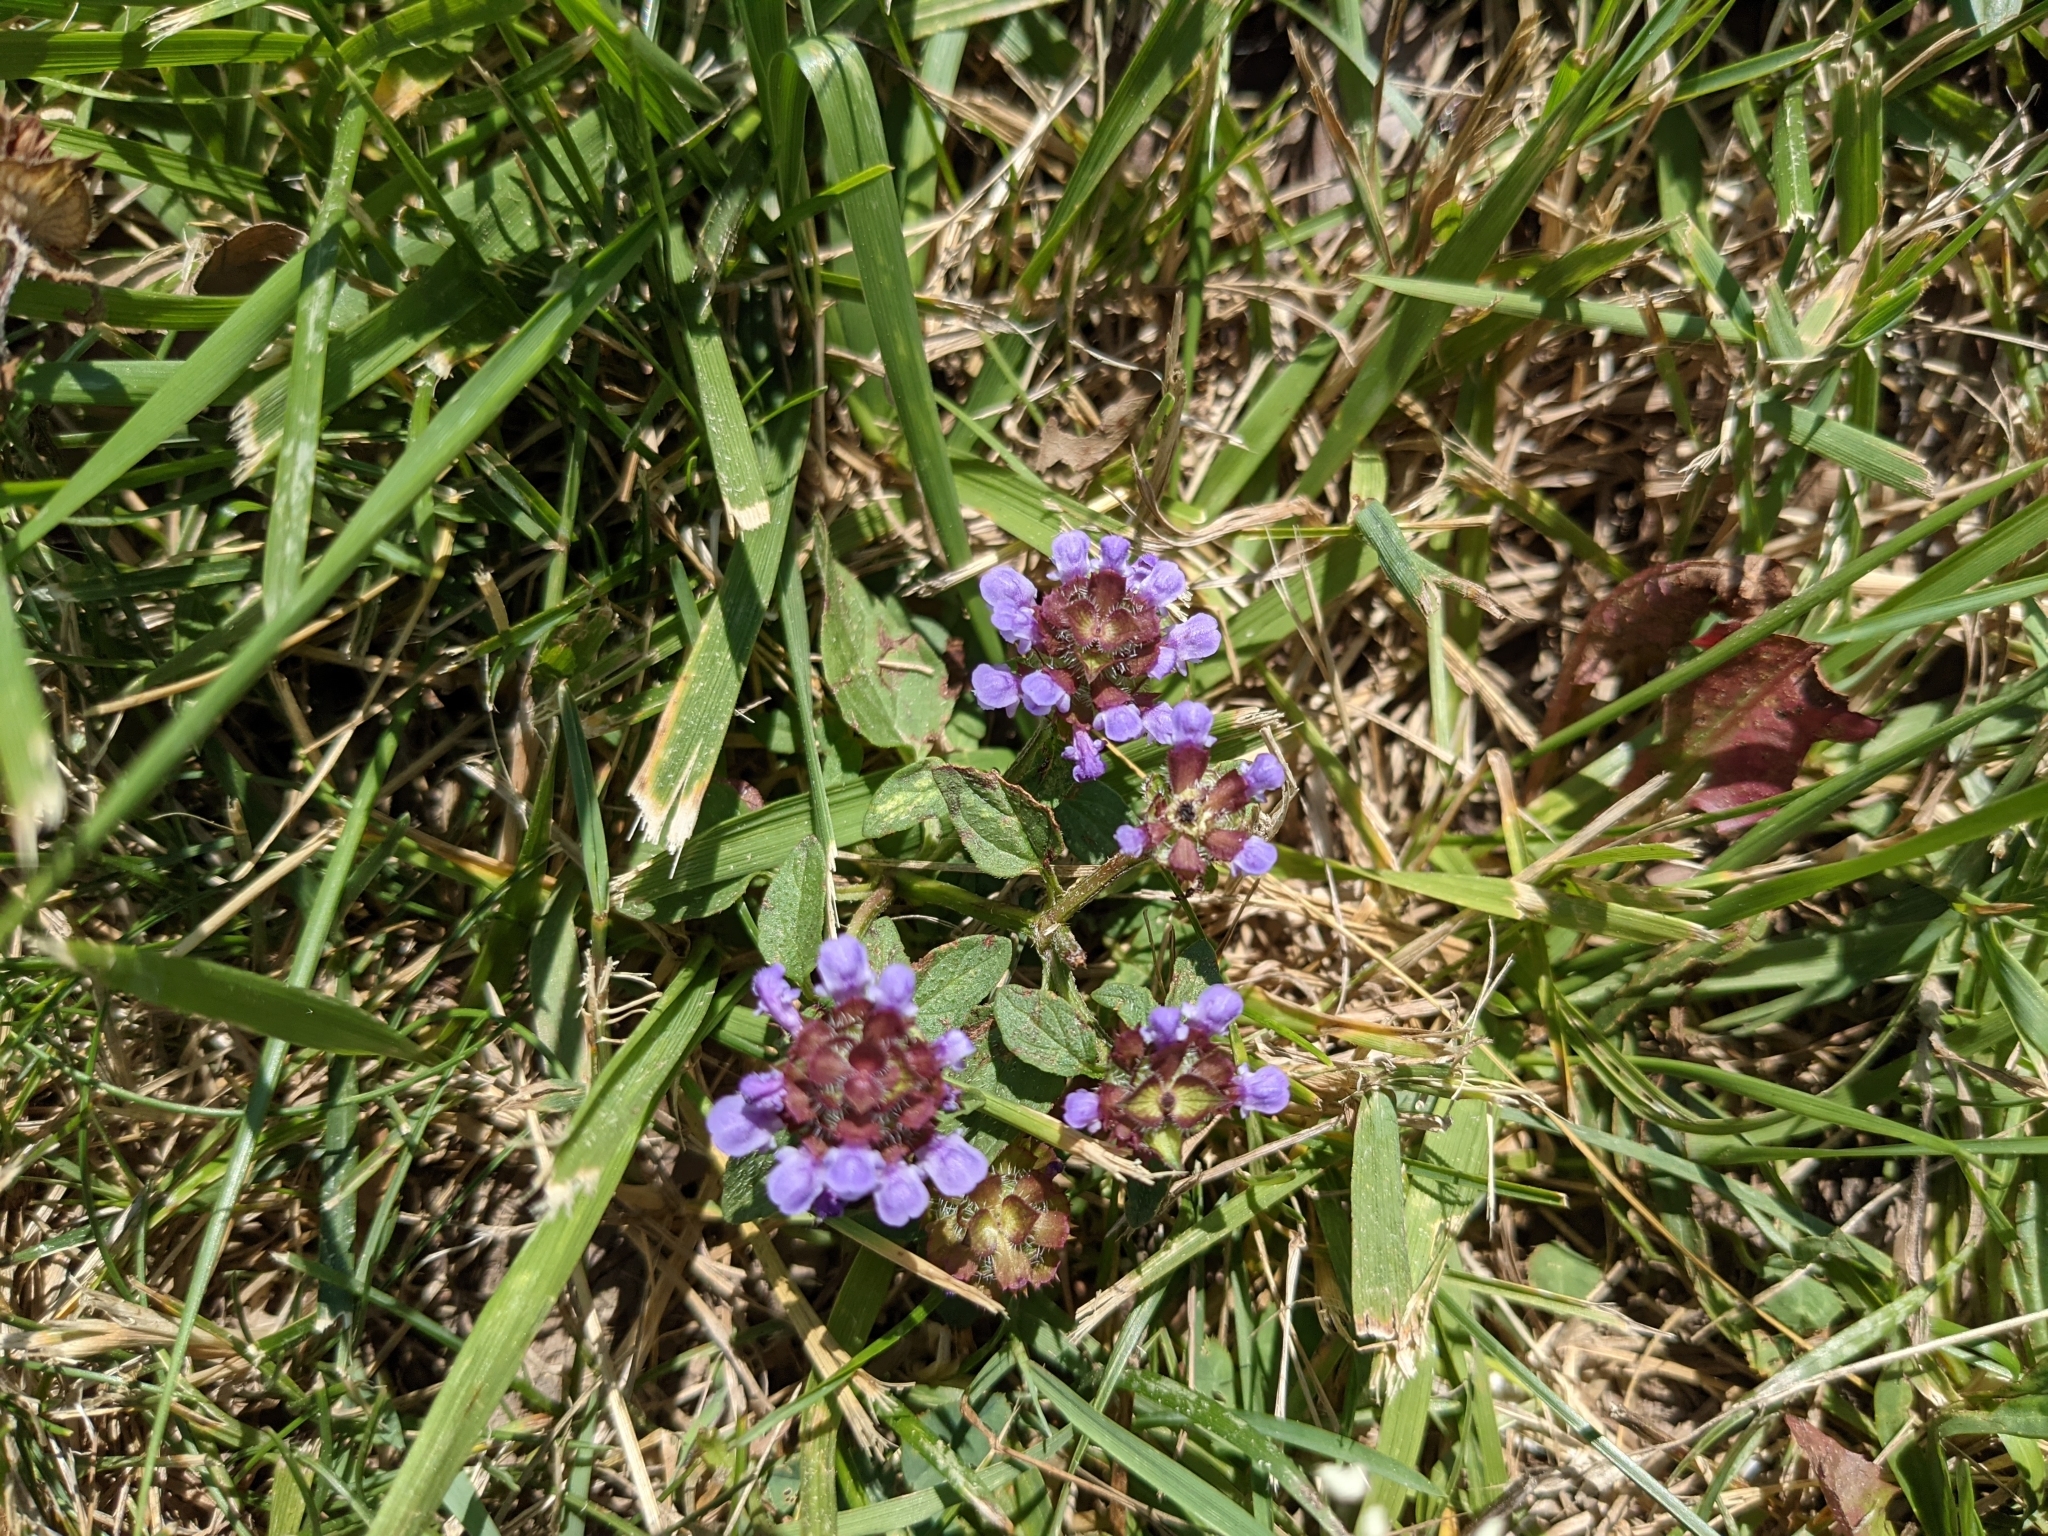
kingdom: Plantae
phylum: Tracheophyta
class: Magnoliopsida
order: Lamiales
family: Lamiaceae
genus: Prunella
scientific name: Prunella vulgaris
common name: Heal-all
